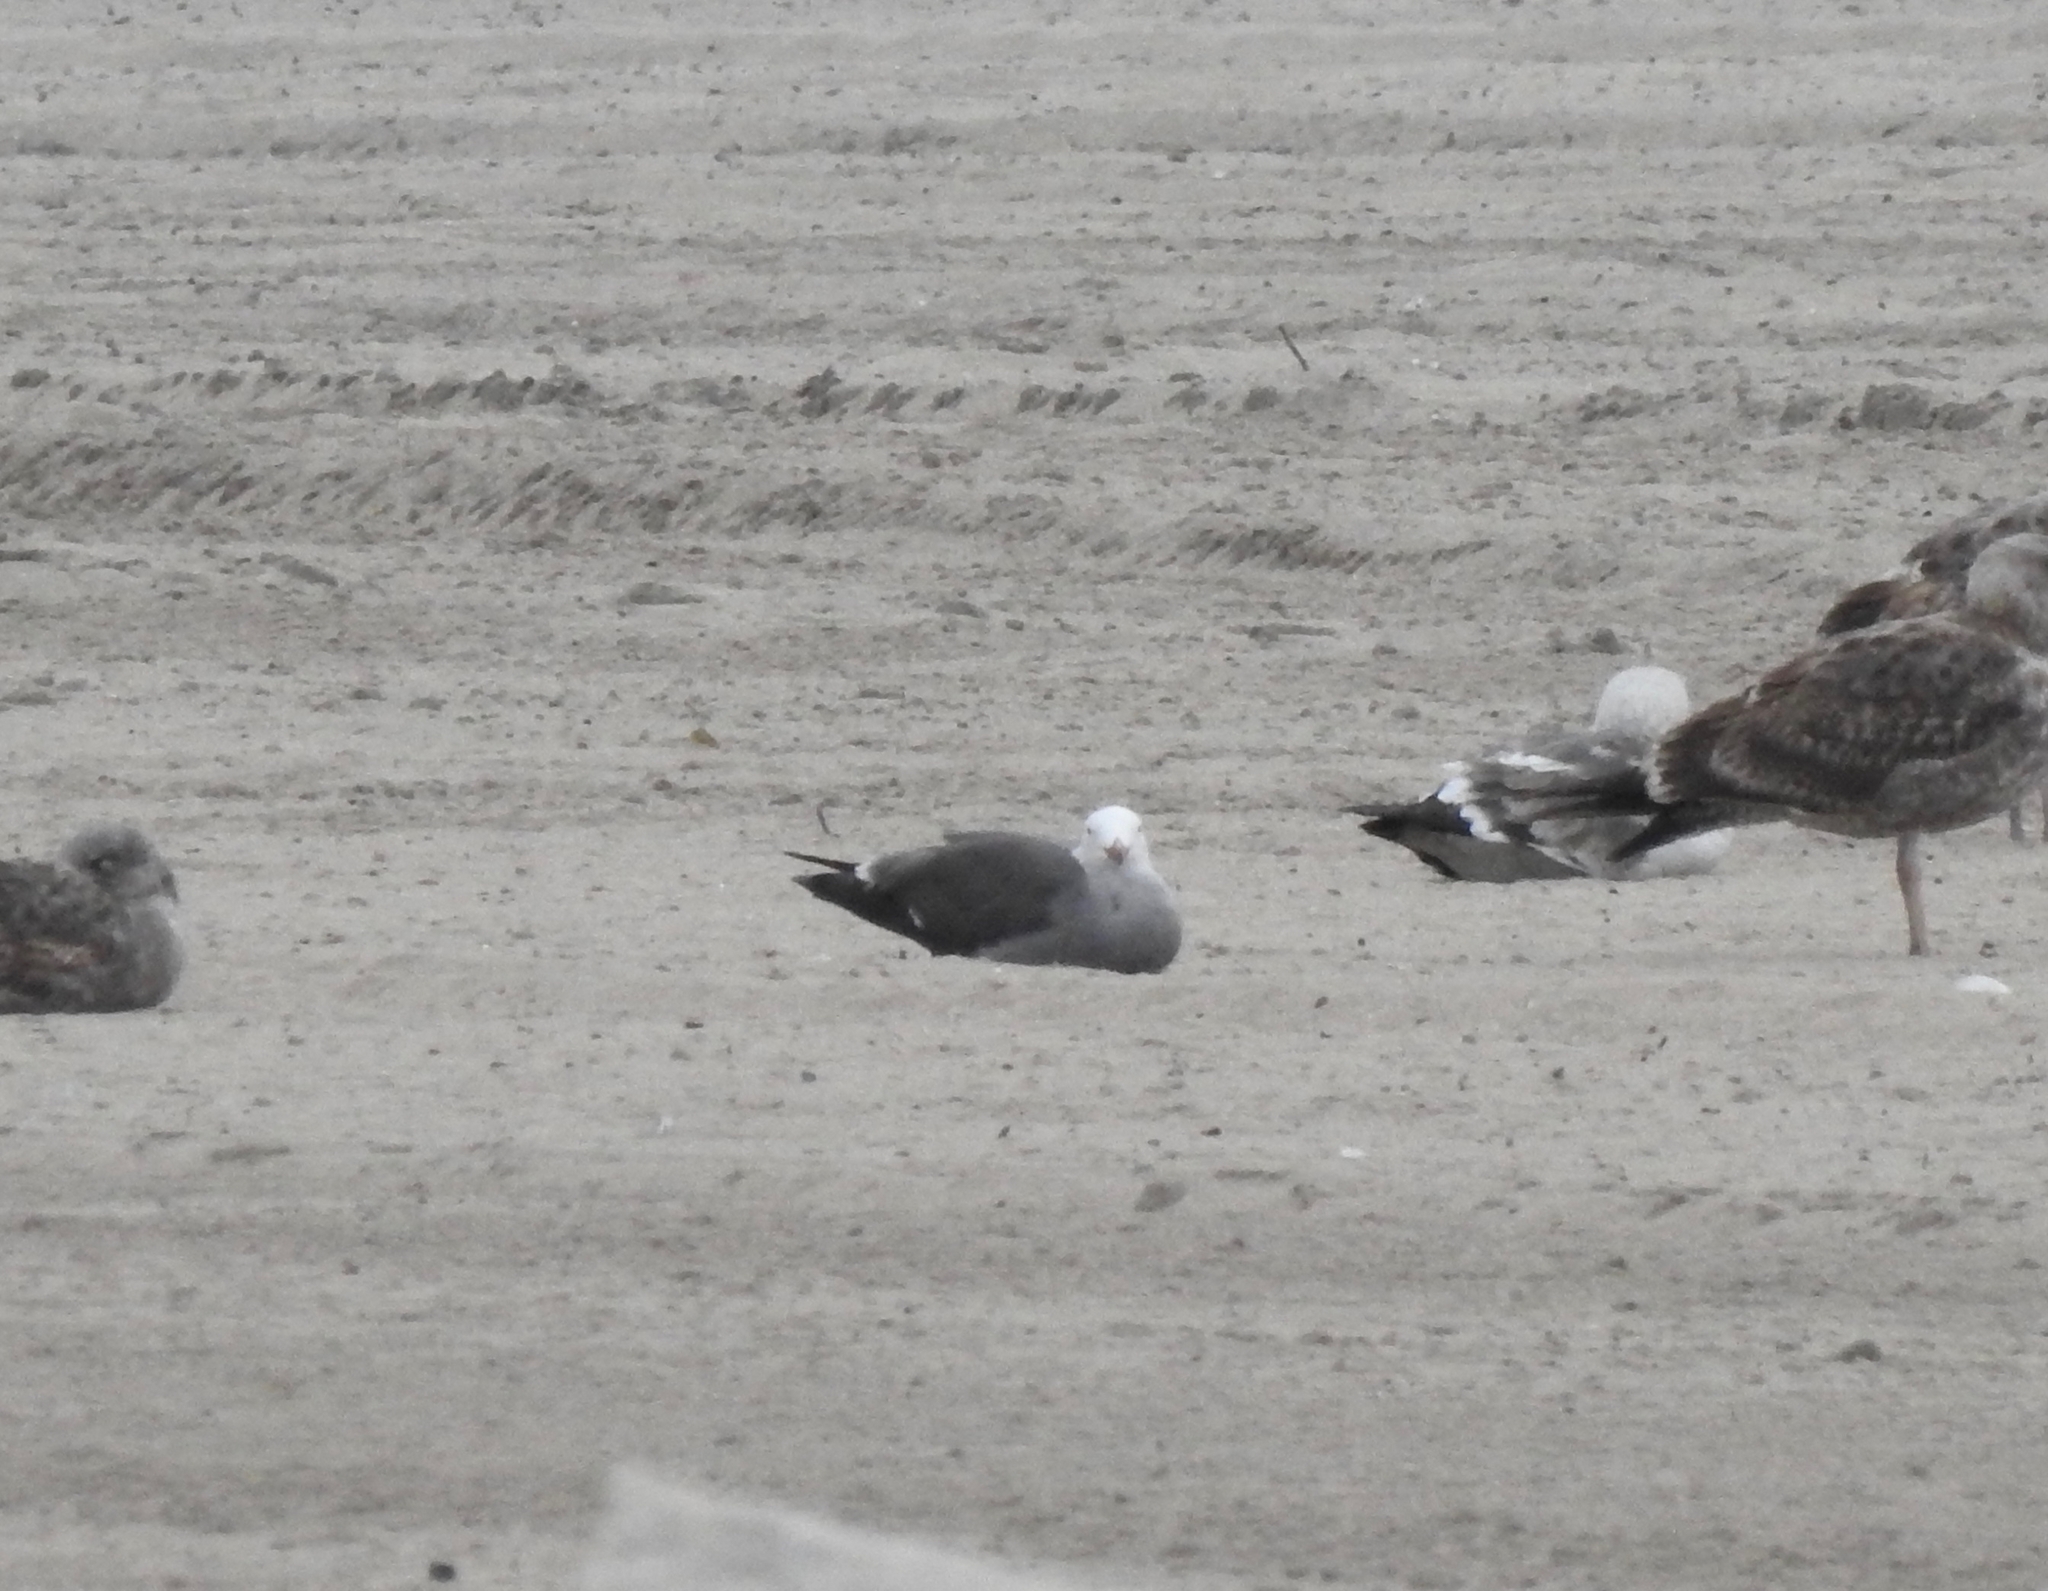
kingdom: Animalia
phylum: Chordata
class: Aves
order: Charadriiformes
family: Laridae
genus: Larus
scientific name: Larus heermanni
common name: Heermann's gull
